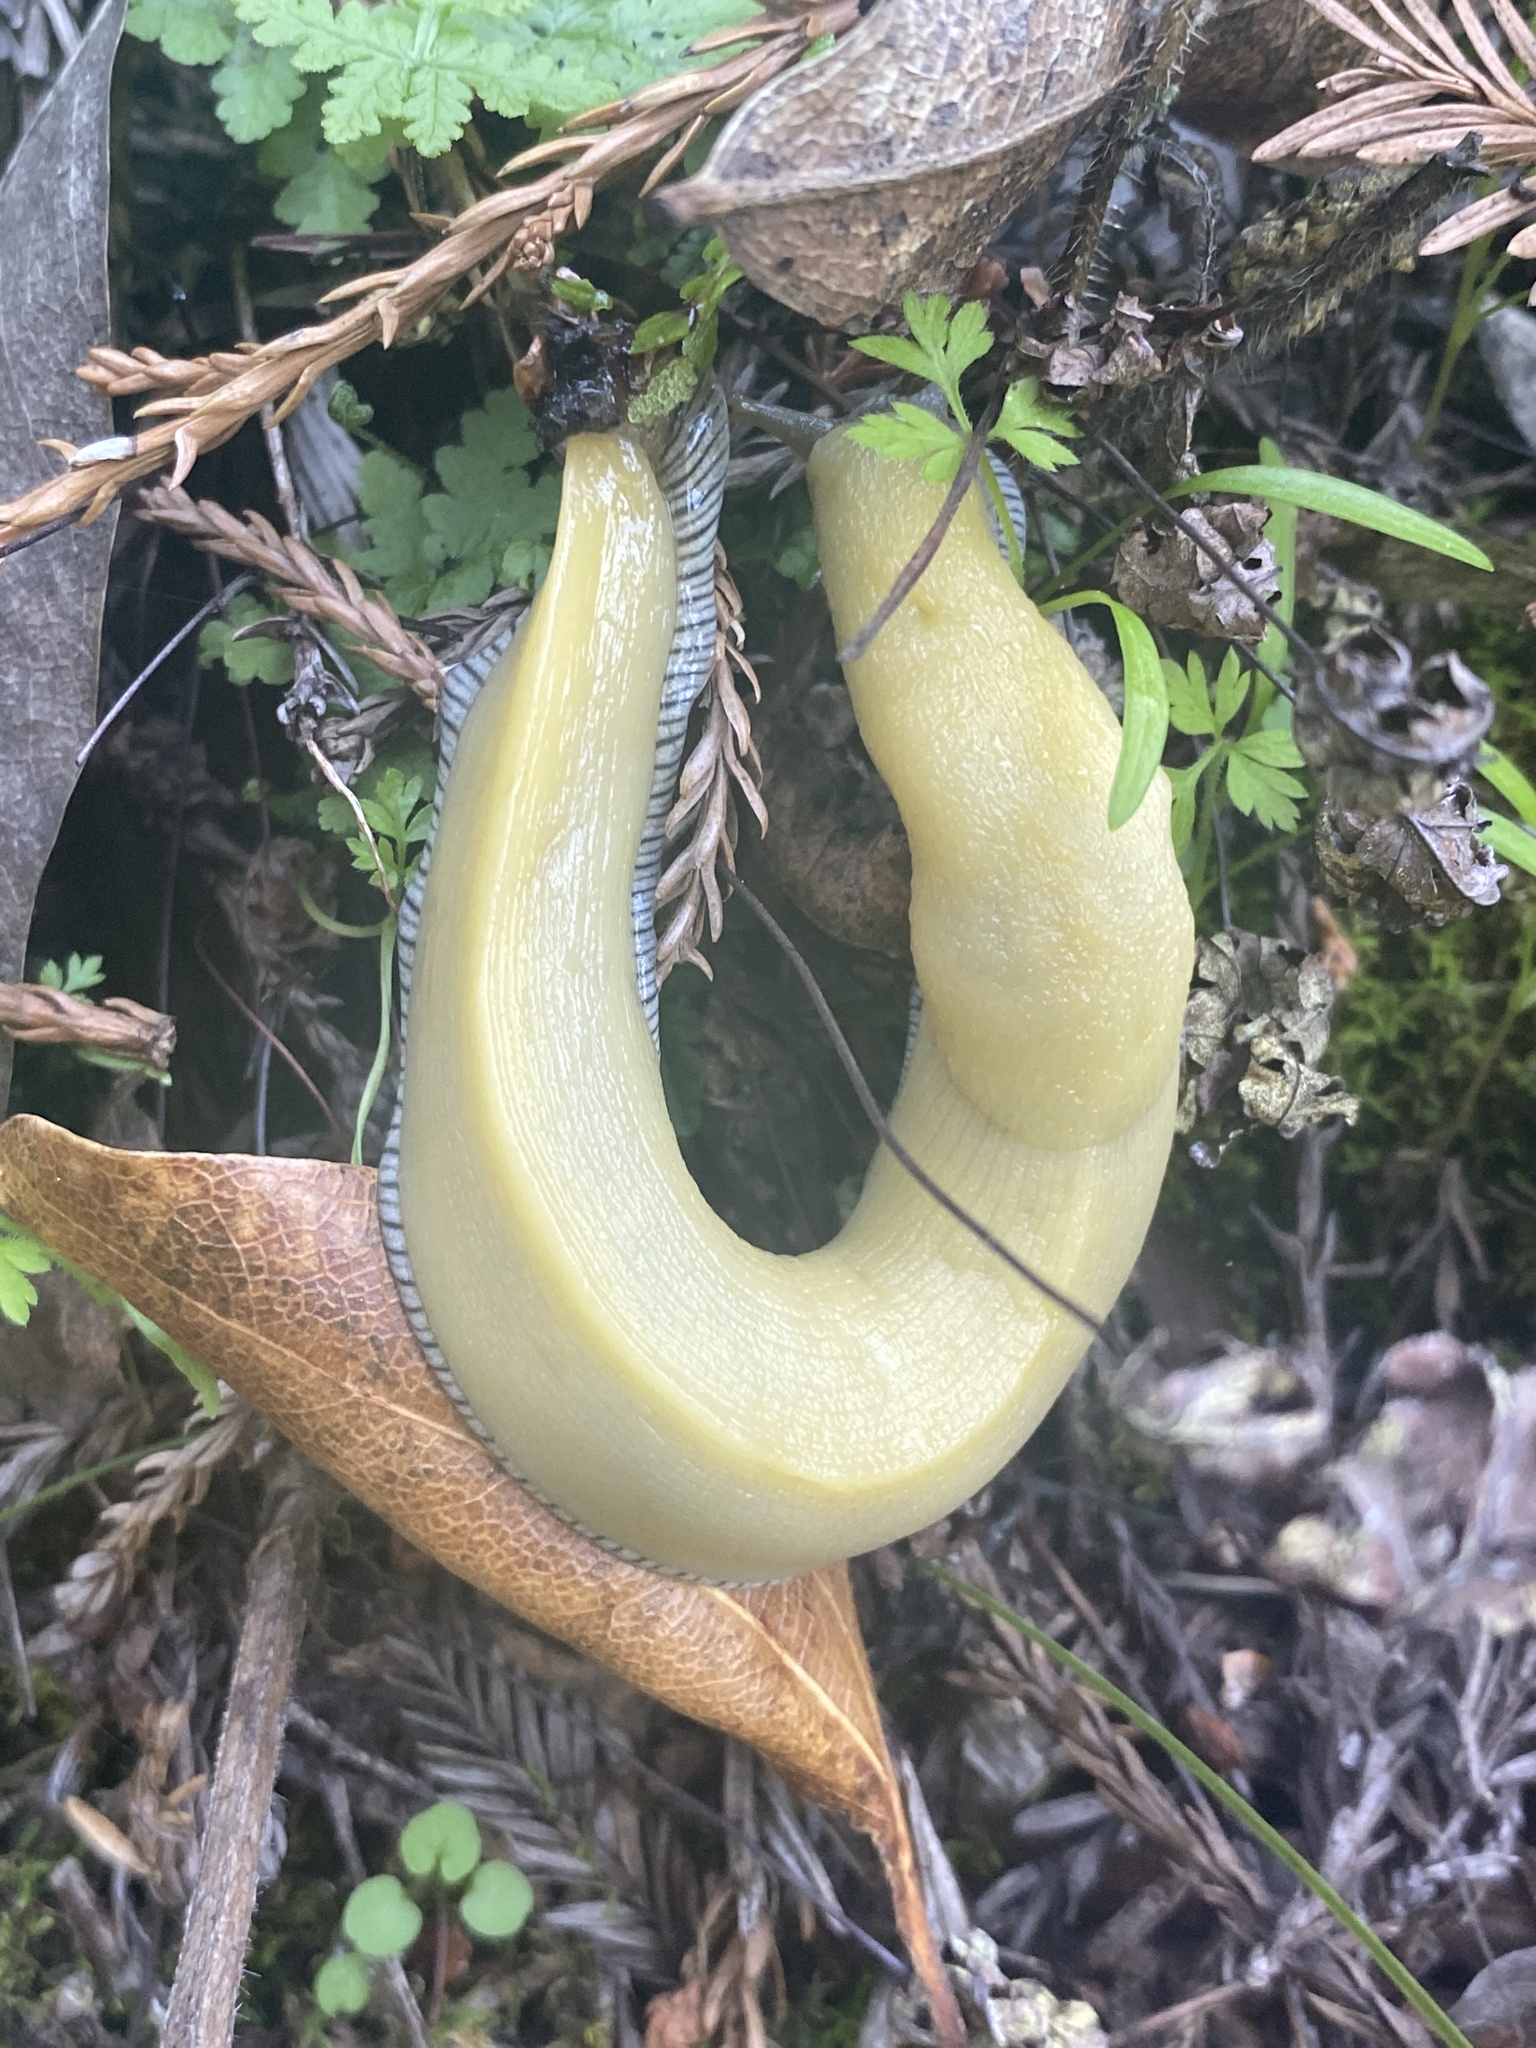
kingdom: Animalia
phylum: Mollusca
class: Gastropoda
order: Stylommatophora
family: Ariolimacidae
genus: Ariolimax
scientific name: Ariolimax stramineus
